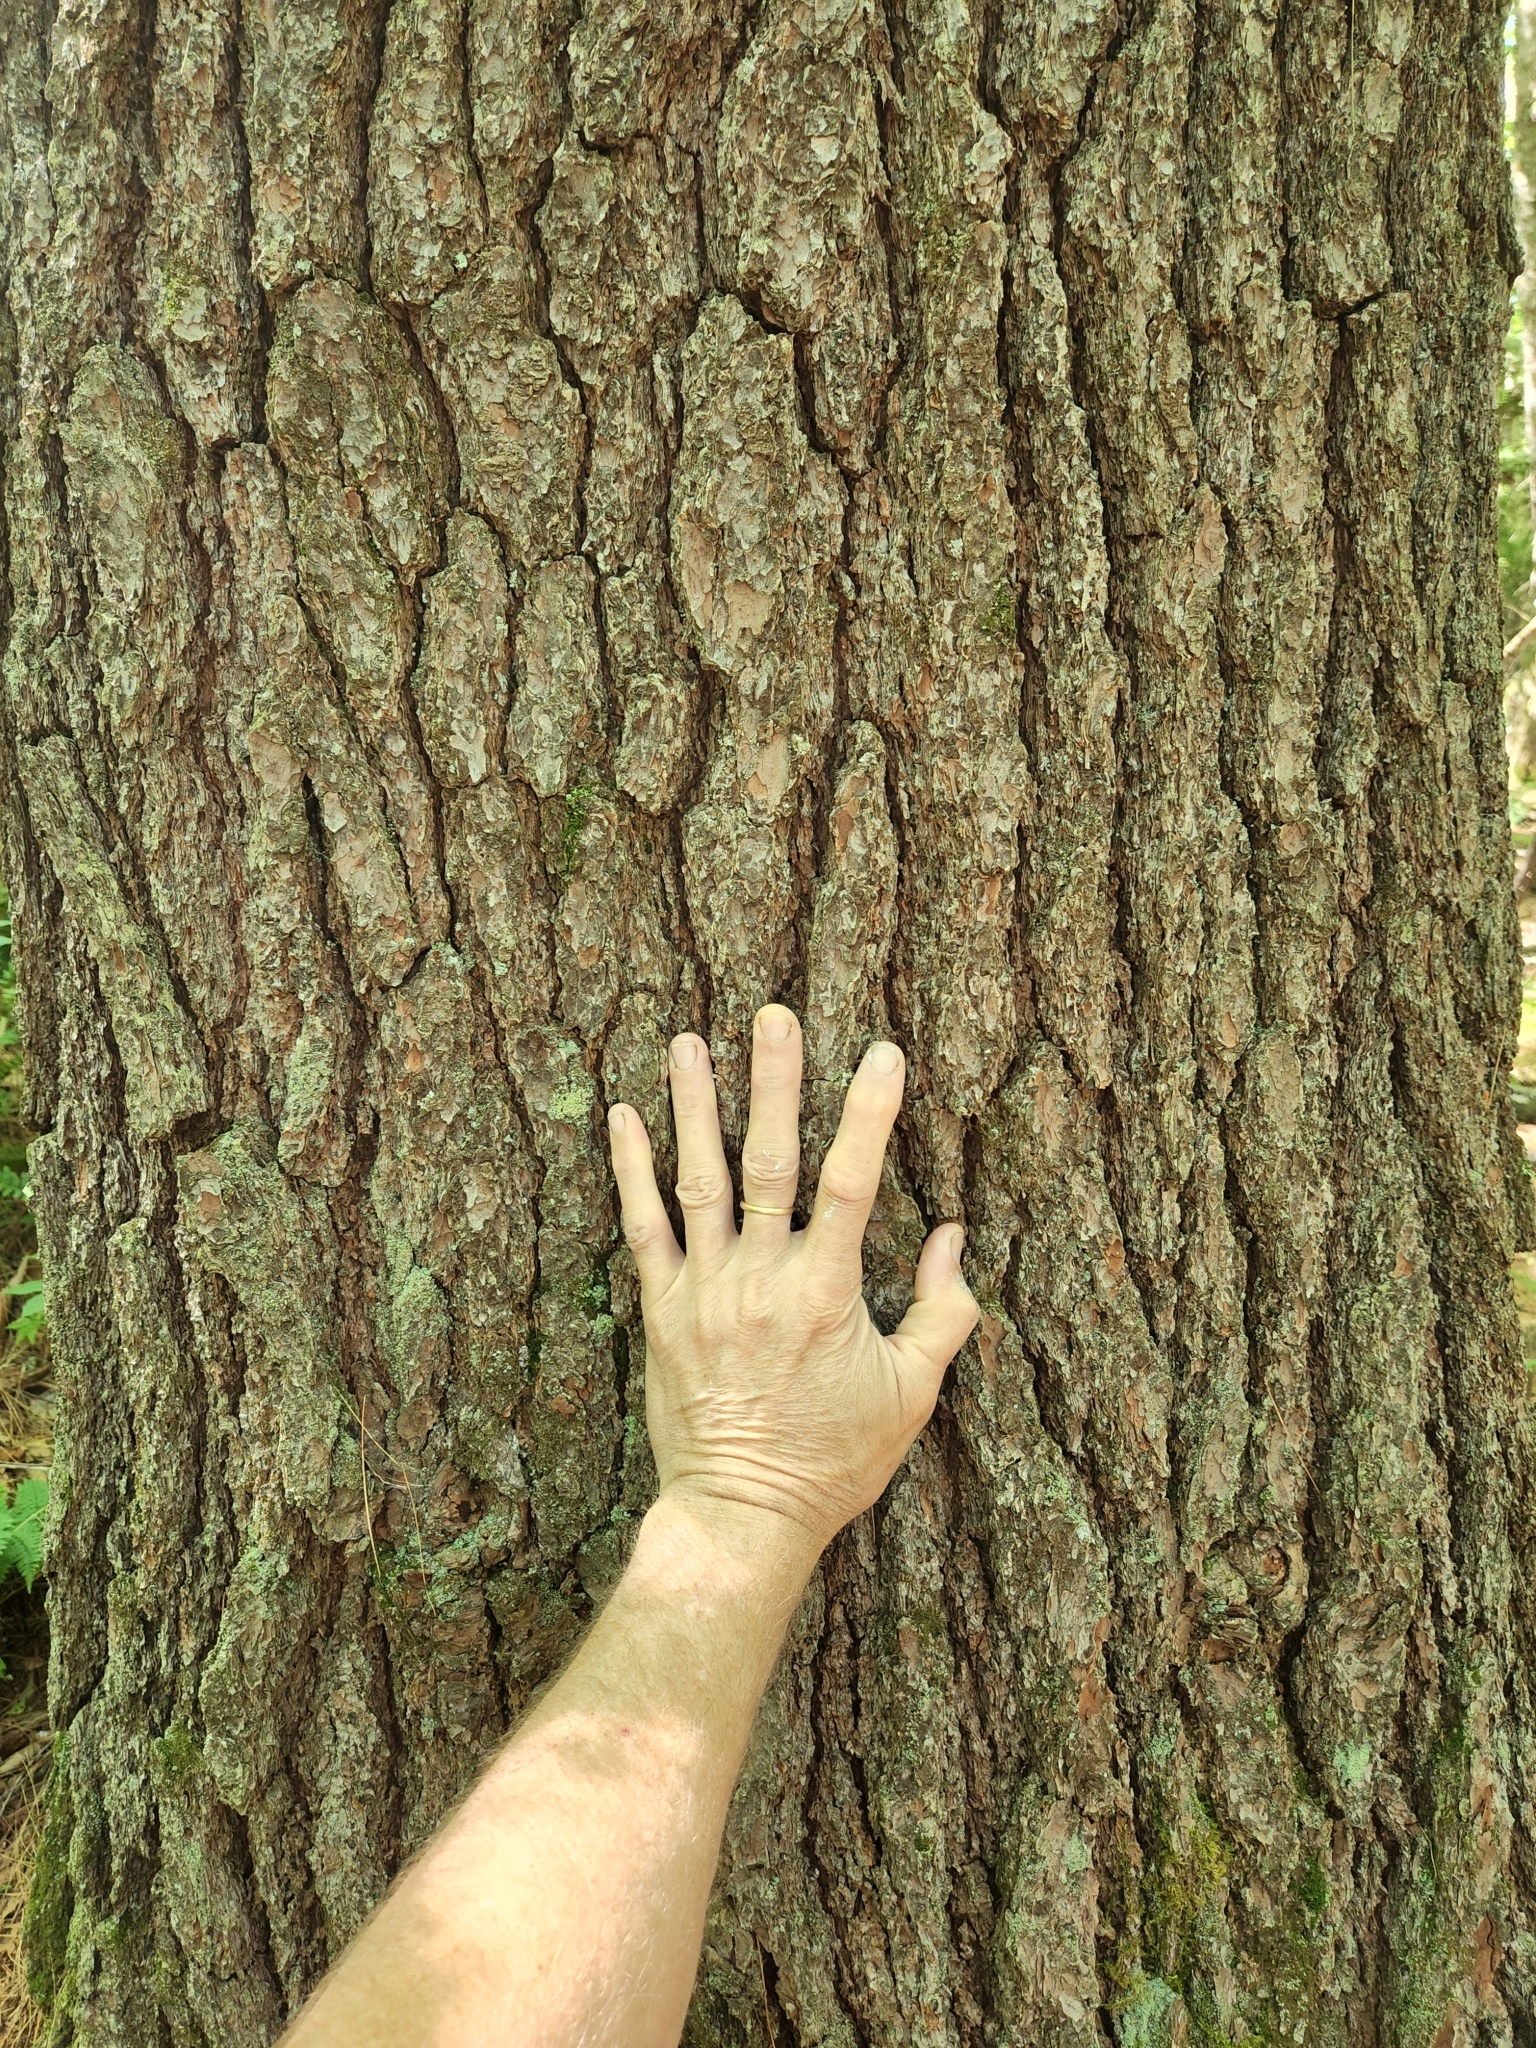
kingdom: Plantae
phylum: Tracheophyta
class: Pinopsida
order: Pinales
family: Pinaceae
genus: Pinus
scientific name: Pinus strobus
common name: Weymouth pine
